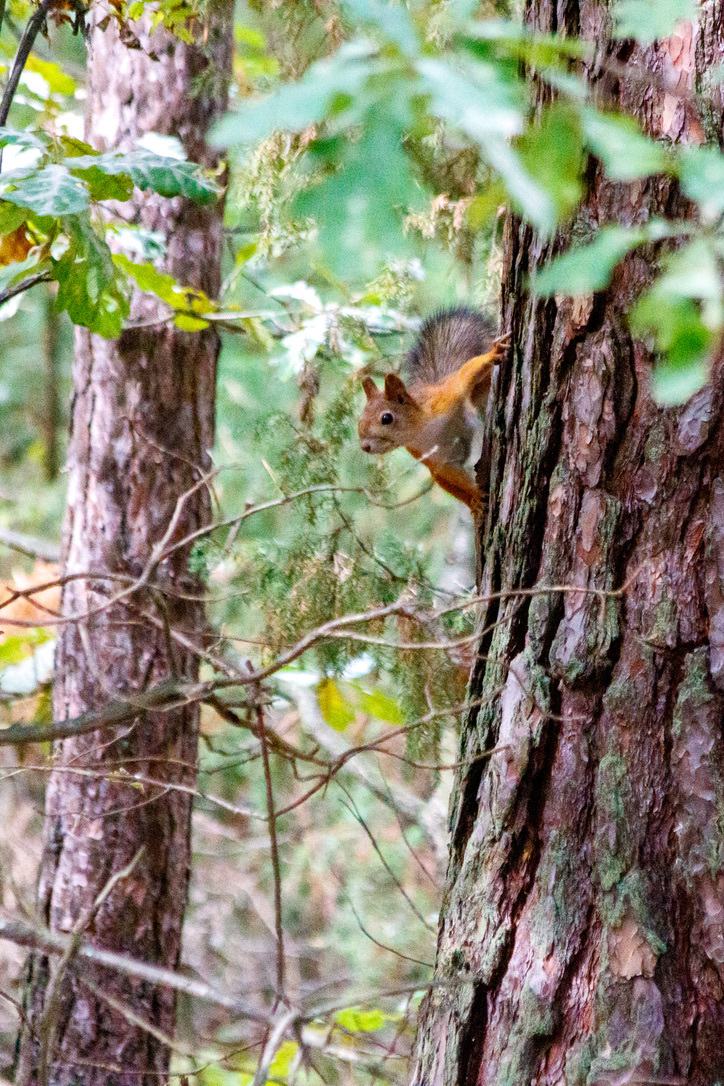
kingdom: Animalia
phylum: Chordata
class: Mammalia
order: Rodentia
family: Sciuridae
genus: Sciurus
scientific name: Sciurus vulgaris
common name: Eurasian red squirrel
